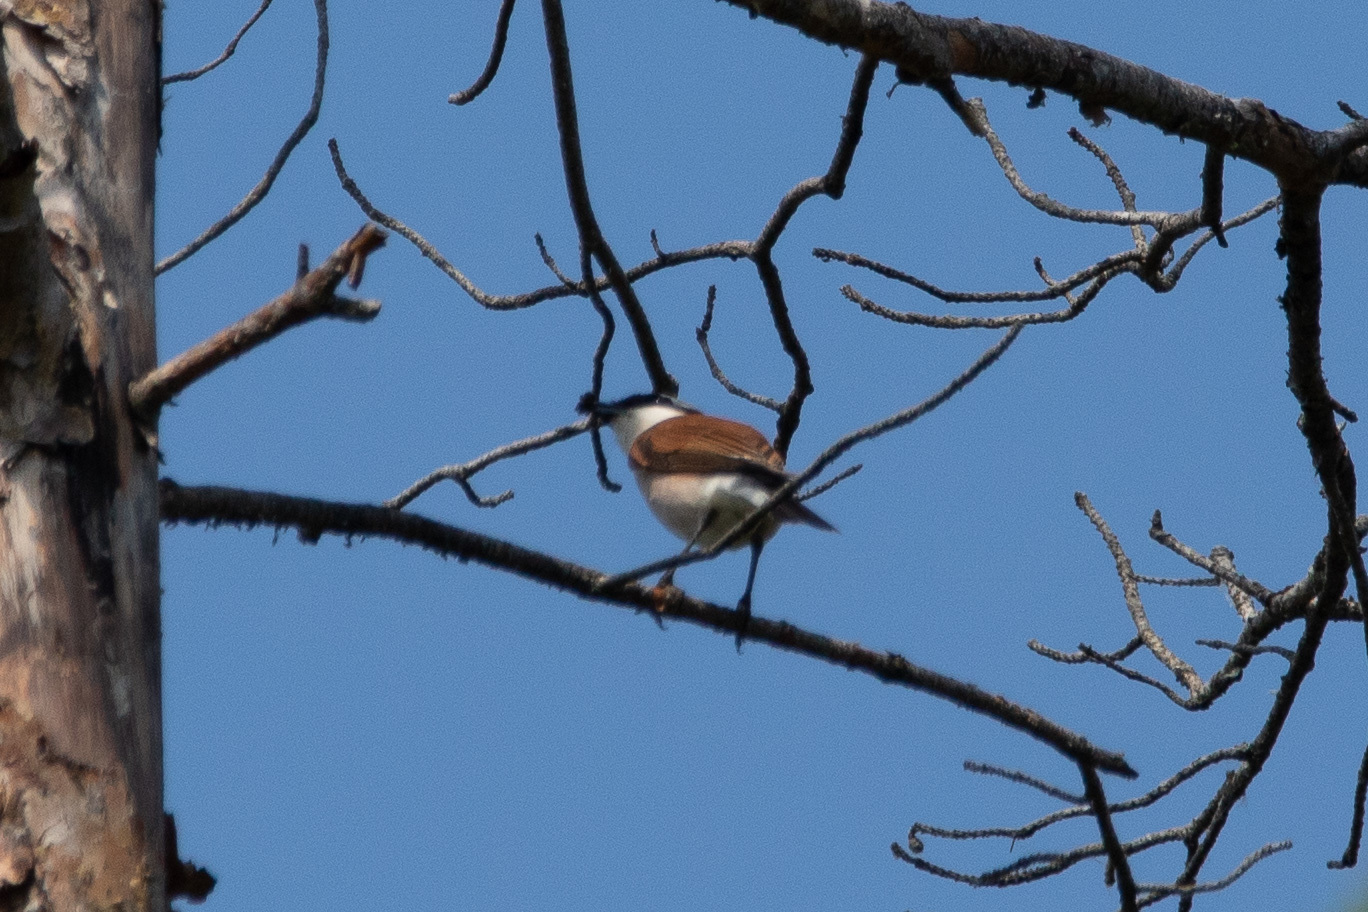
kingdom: Animalia
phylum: Chordata
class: Aves
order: Passeriformes
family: Laniidae
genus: Lanius
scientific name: Lanius collurio
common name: Red-backed shrike
